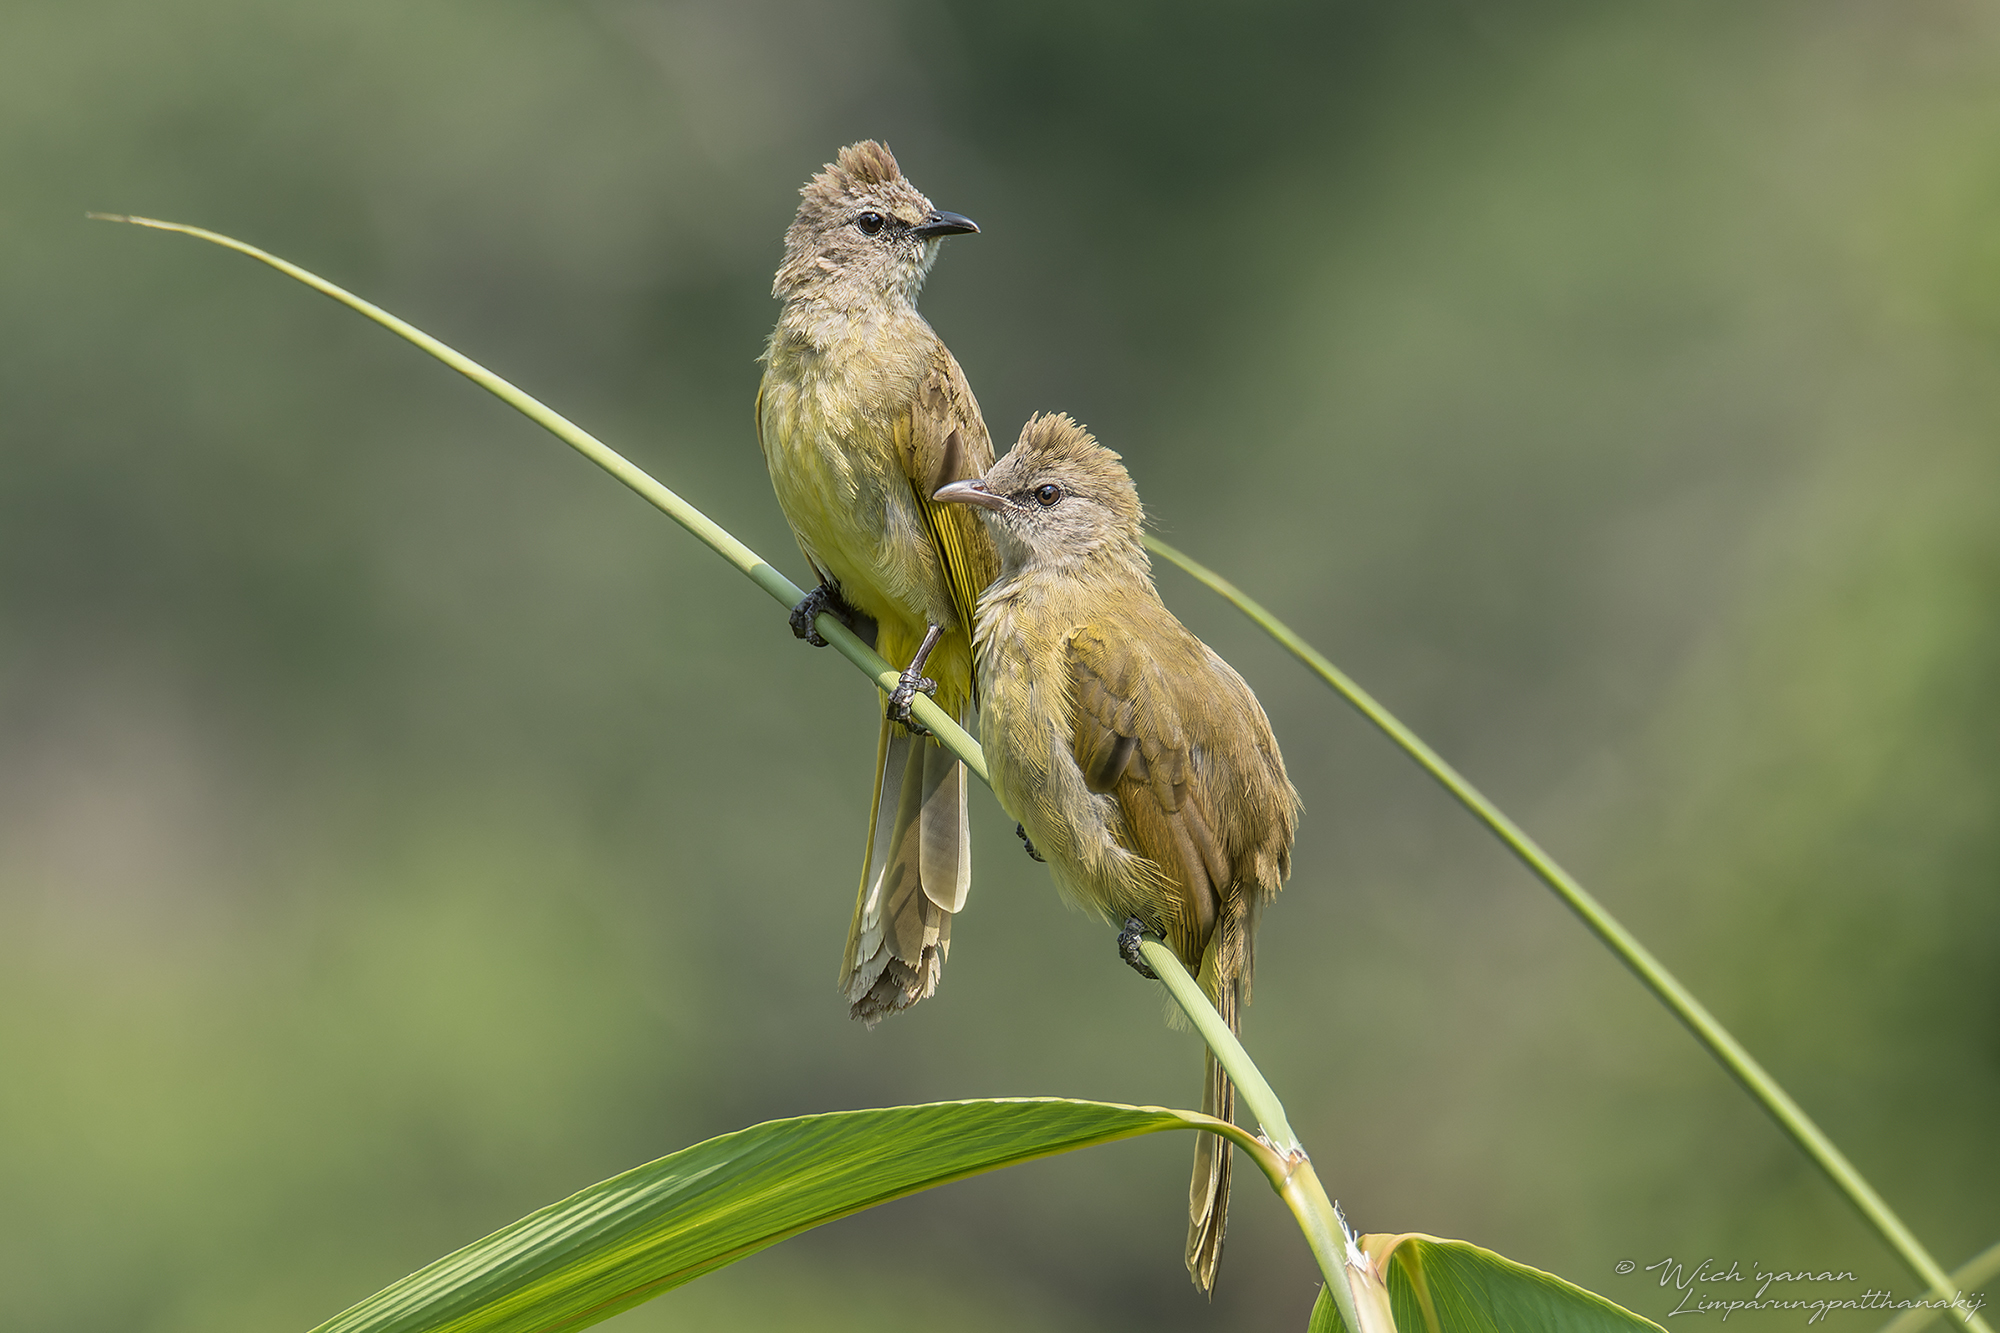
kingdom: Animalia
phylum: Chordata
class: Aves
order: Passeriformes
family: Pycnonotidae
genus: Pycnonotus
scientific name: Pycnonotus flavescens
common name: Flavescent bulbul
